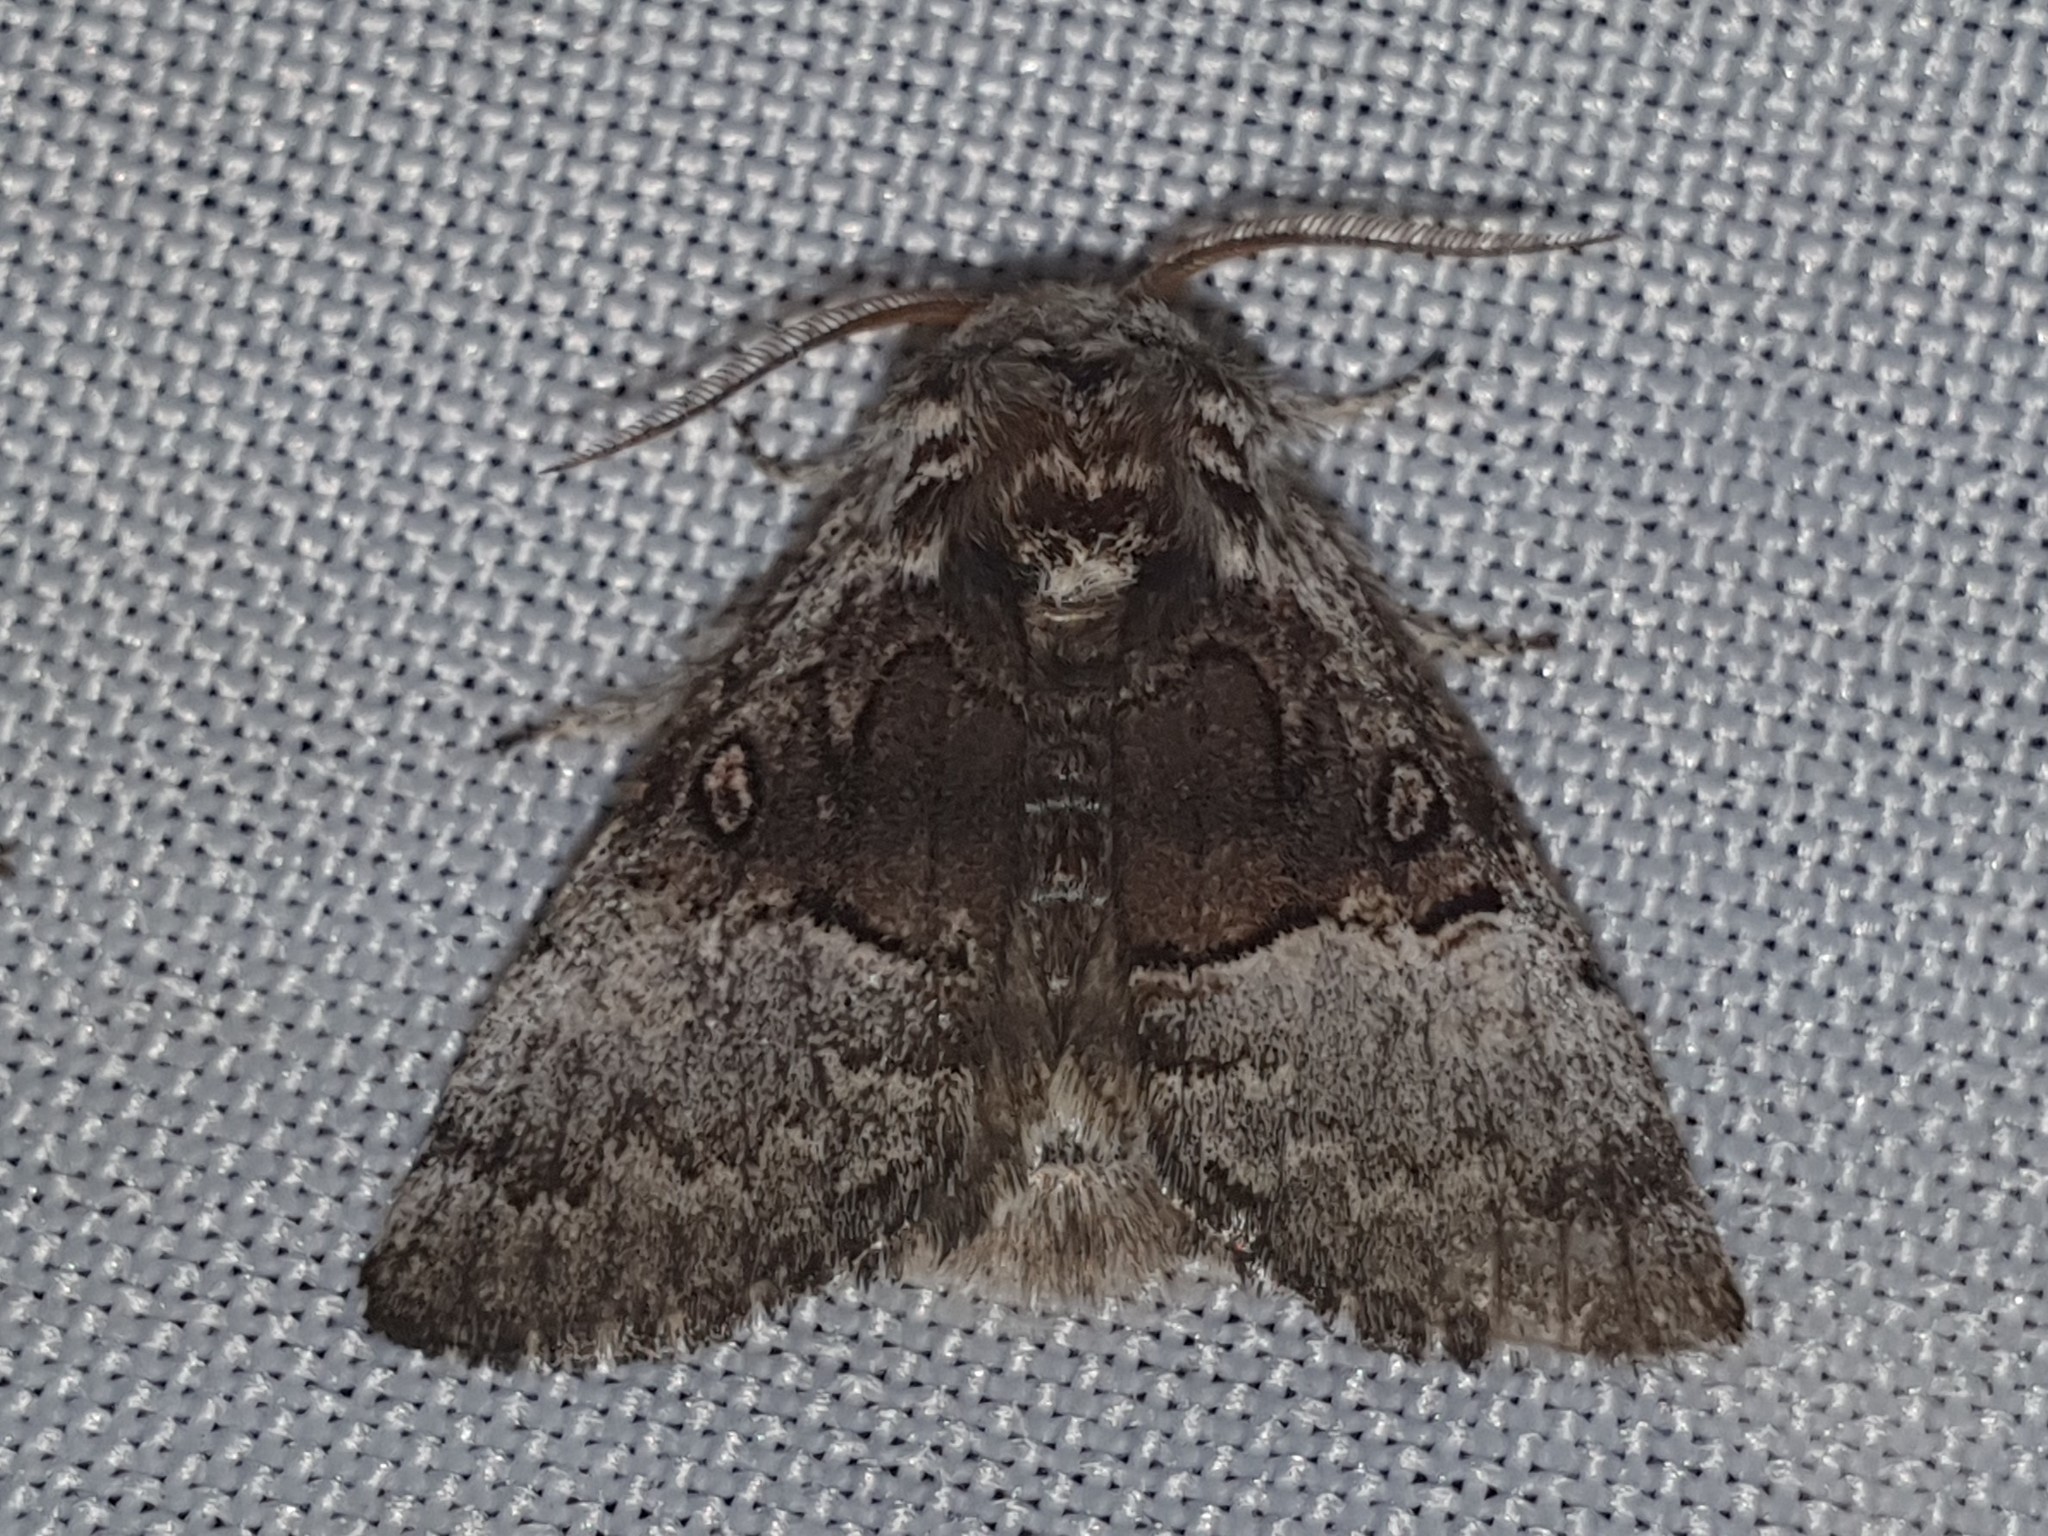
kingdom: Animalia
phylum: Arthropoda
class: Insecta
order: Lepidoptera
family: Noctuidae
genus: Colocasia
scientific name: Colocasia coryli
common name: Nut-tree tussock
